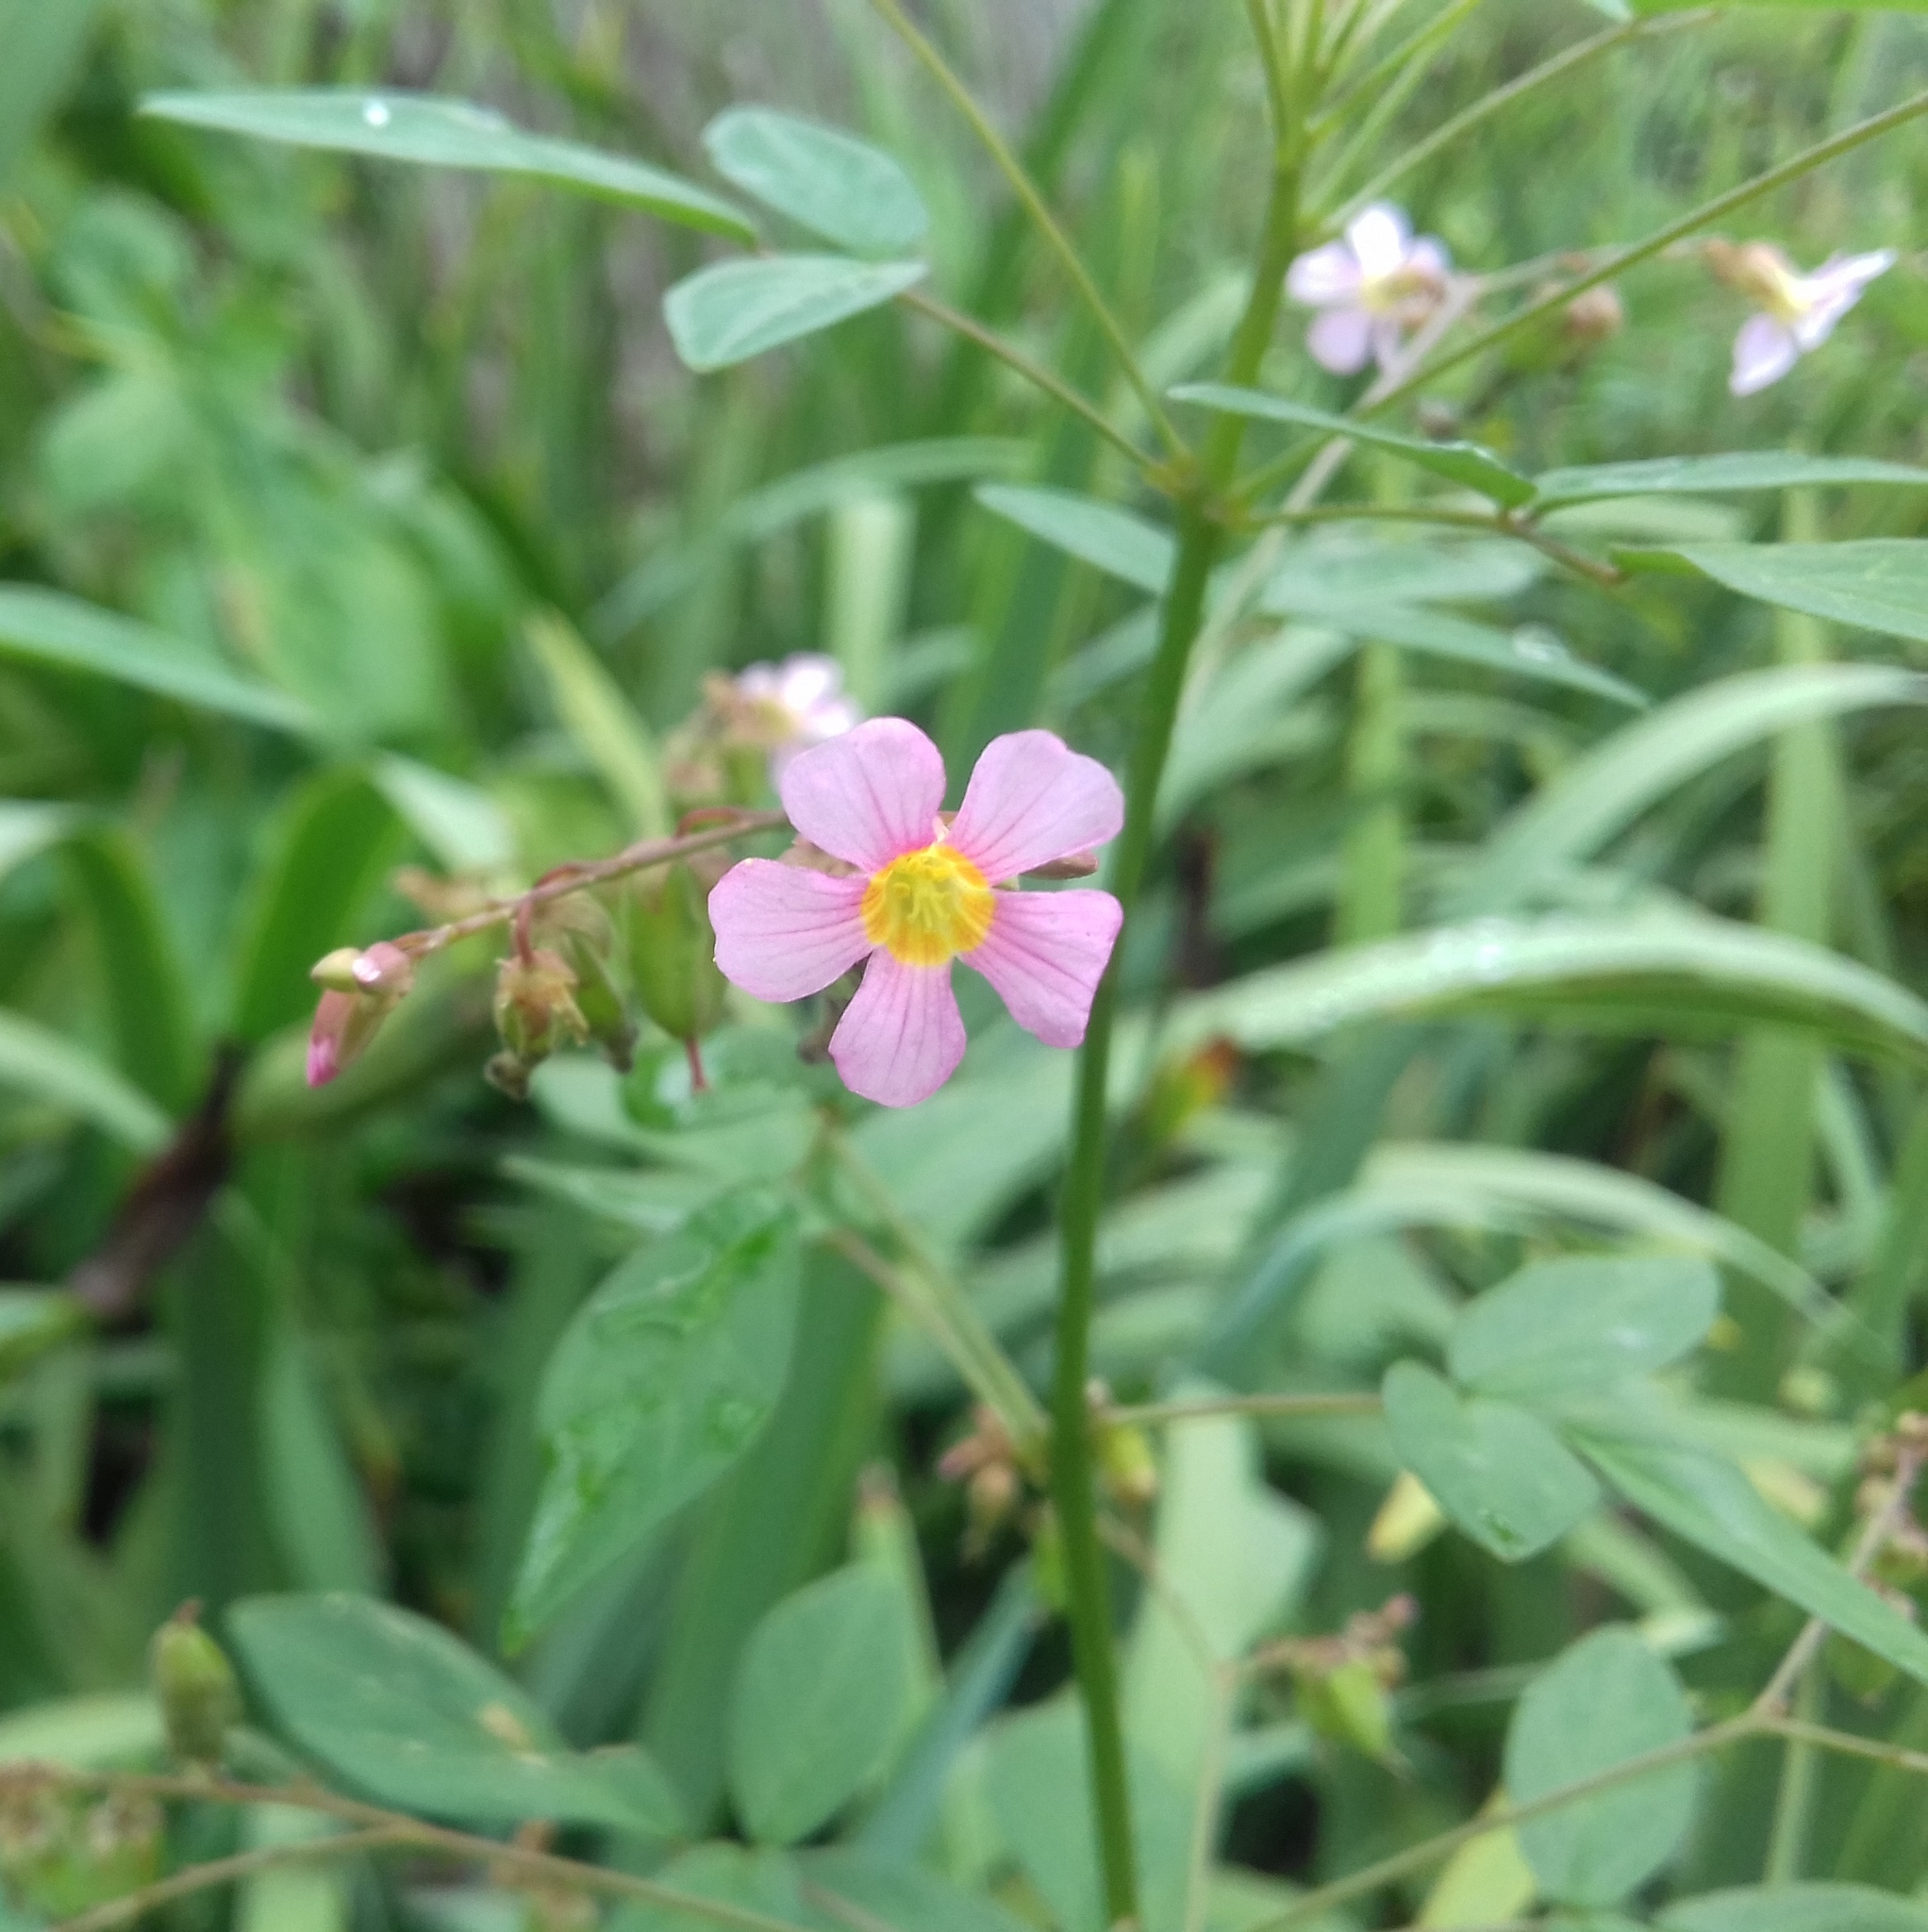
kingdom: Plantae
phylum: Tracheophyta
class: Magnoliopsida
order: Oxalidales
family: Oxalidaceae
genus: Oxalis
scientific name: Oxalis barrelieri
